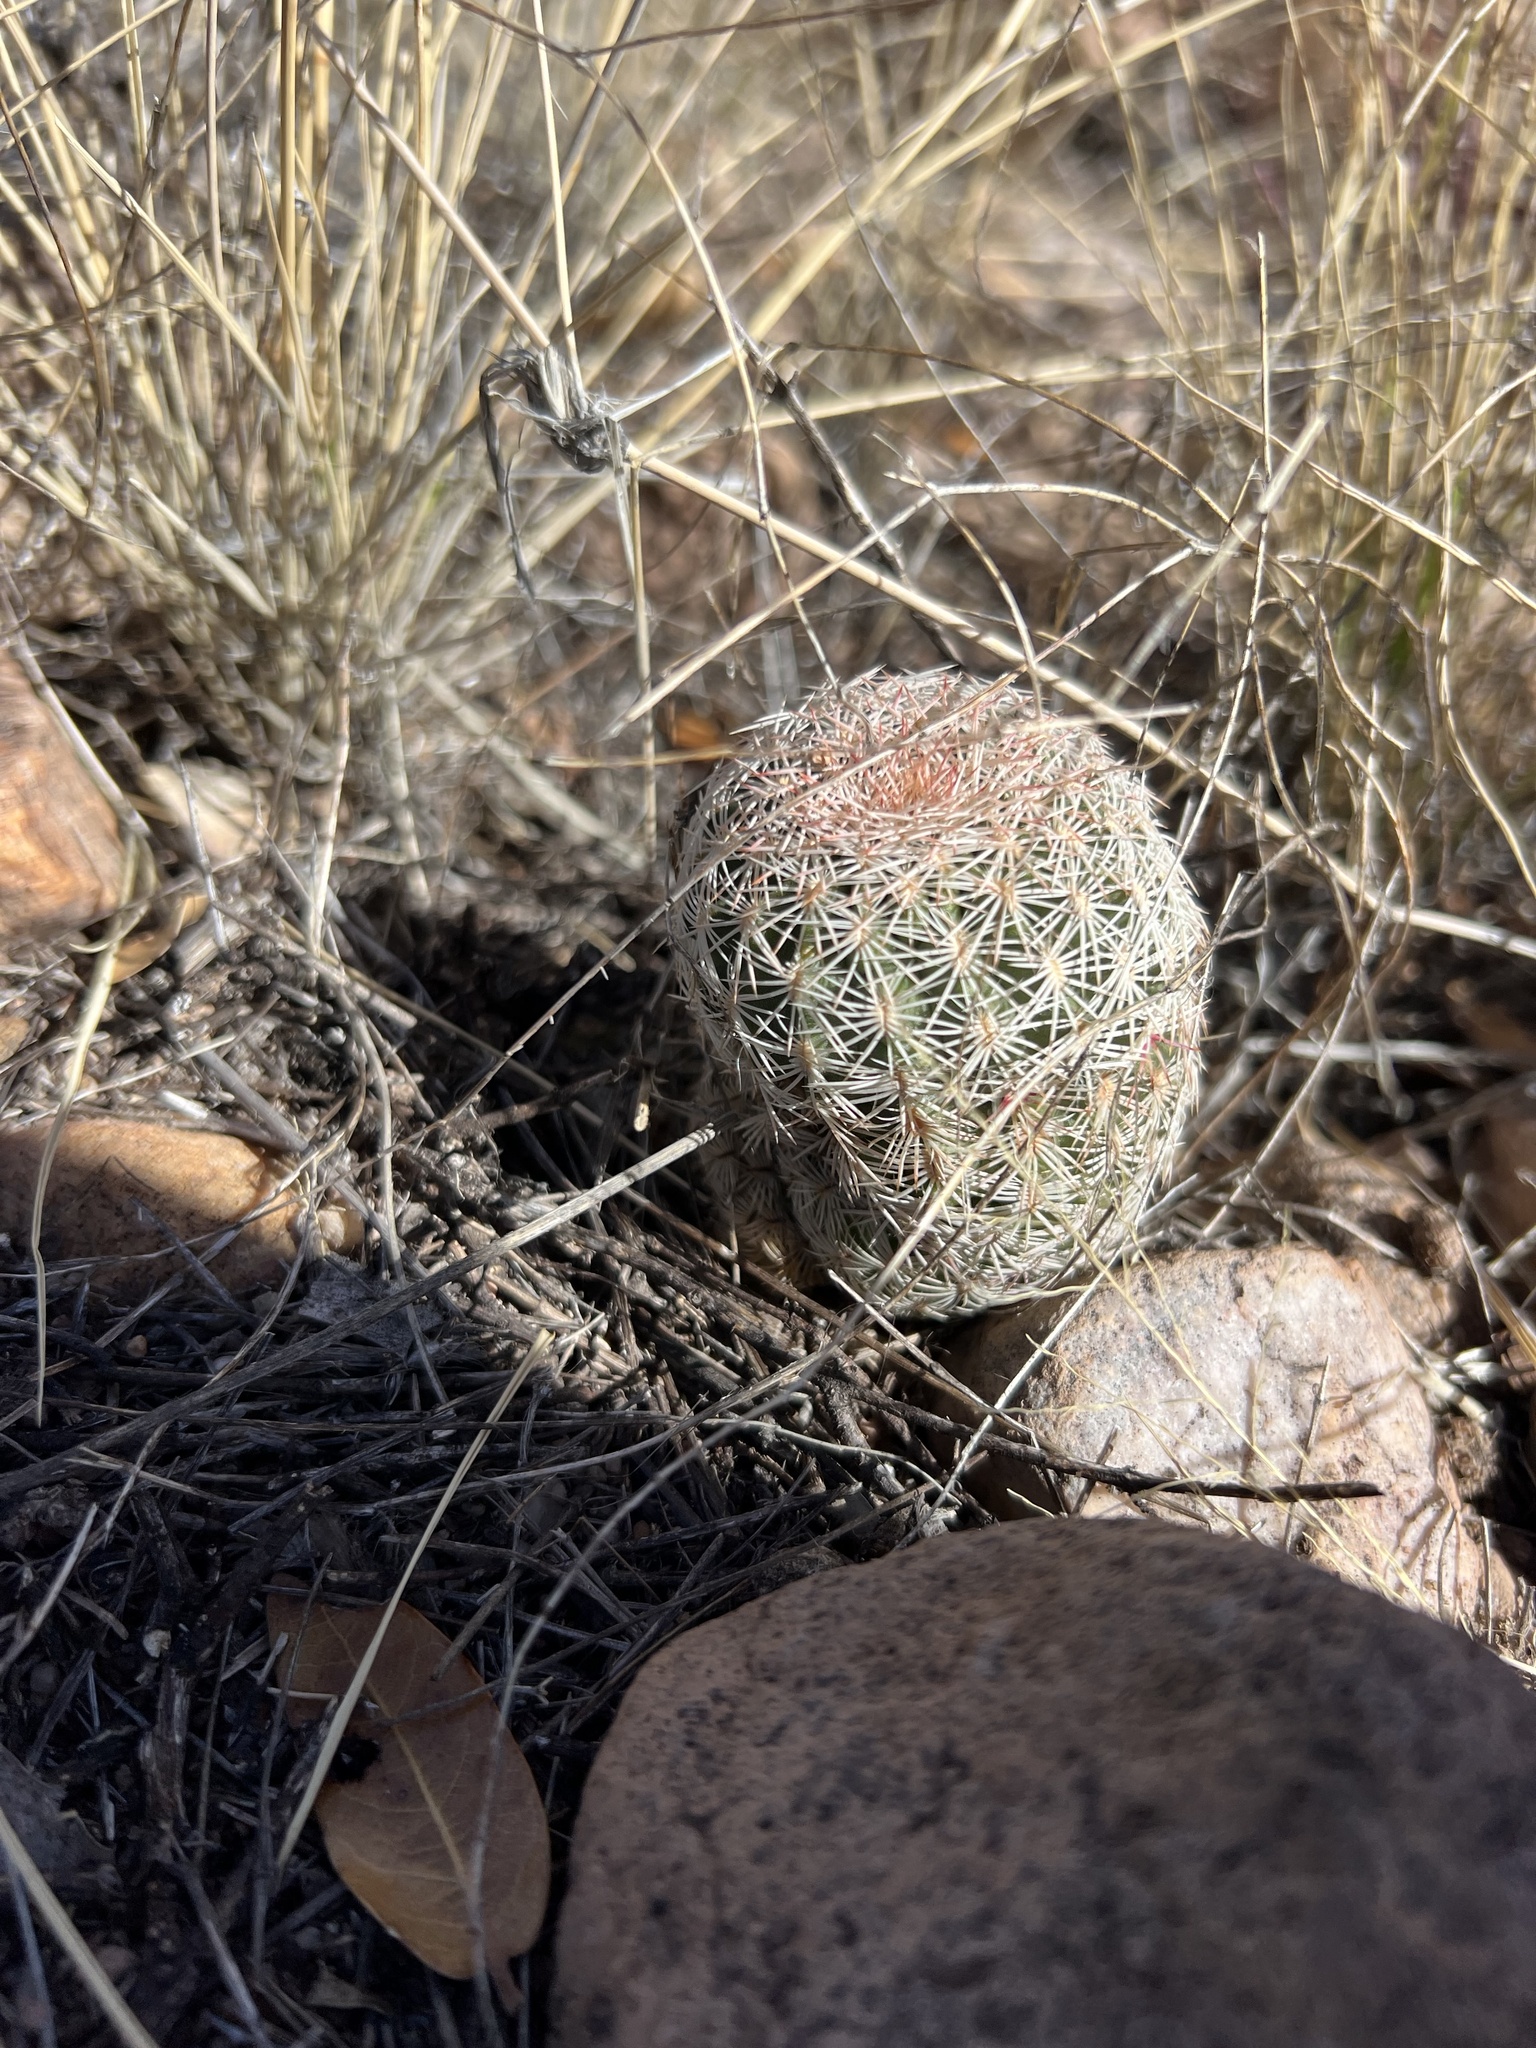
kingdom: Plantae
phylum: Tracheophyta
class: Magnoliopsida
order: Caryophyllales
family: Cactaceae
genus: Echinocereus
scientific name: Echinocereus rigidissimus
